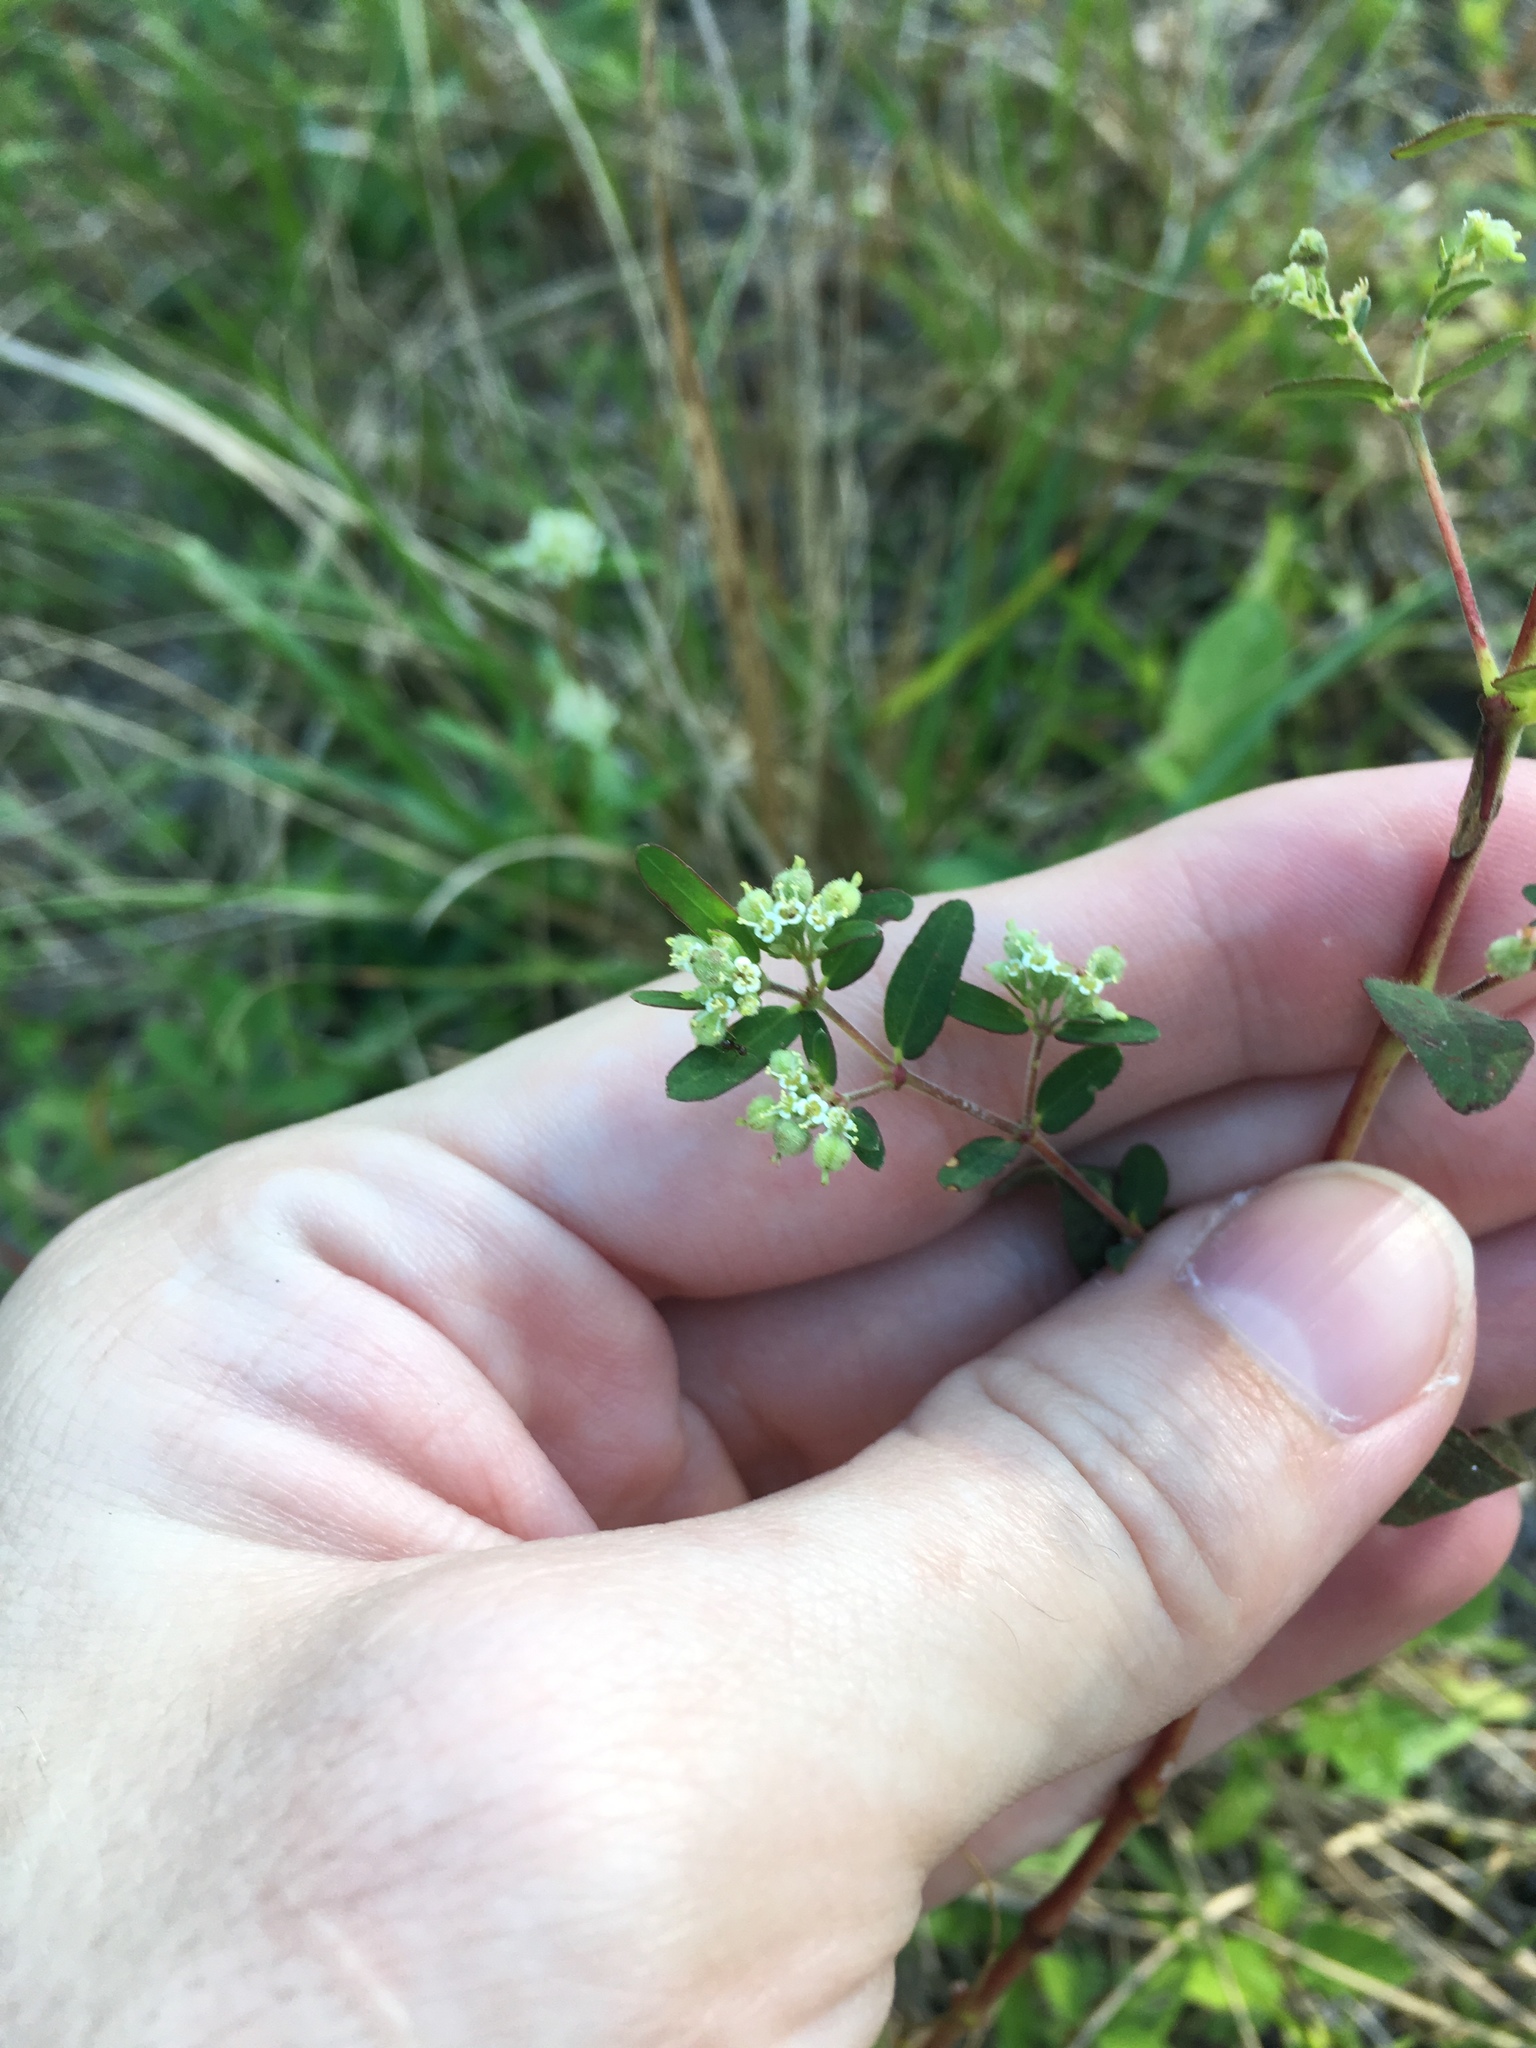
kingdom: Plantae
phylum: Tracheophyta
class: Magnoliopsida
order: Malpighiales
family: Euphorbiaceae
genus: Euphorbia
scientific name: Euphorbia lasiocarpa
